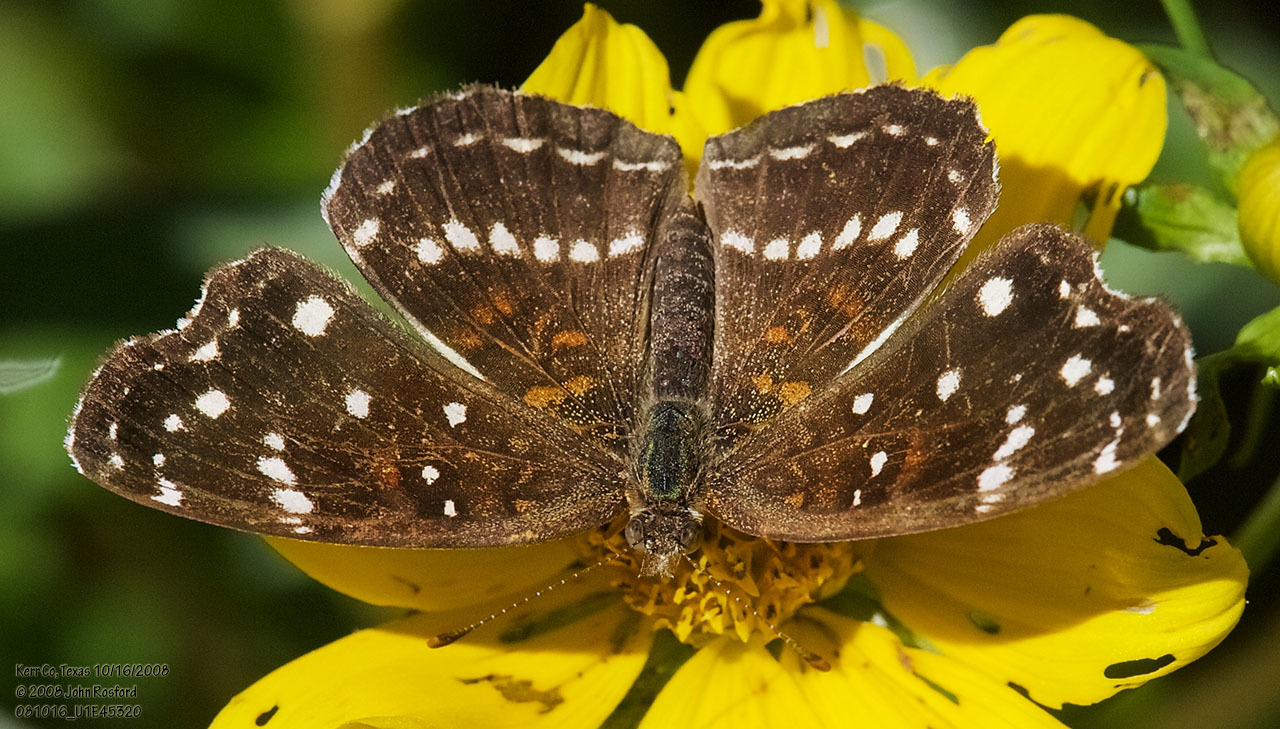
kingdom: Animalia
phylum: Arthropoda
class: Insecta
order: Lepidoptera
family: Nymphalidae
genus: Anthanassa
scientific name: Anthanassa texana
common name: Texan crescent
